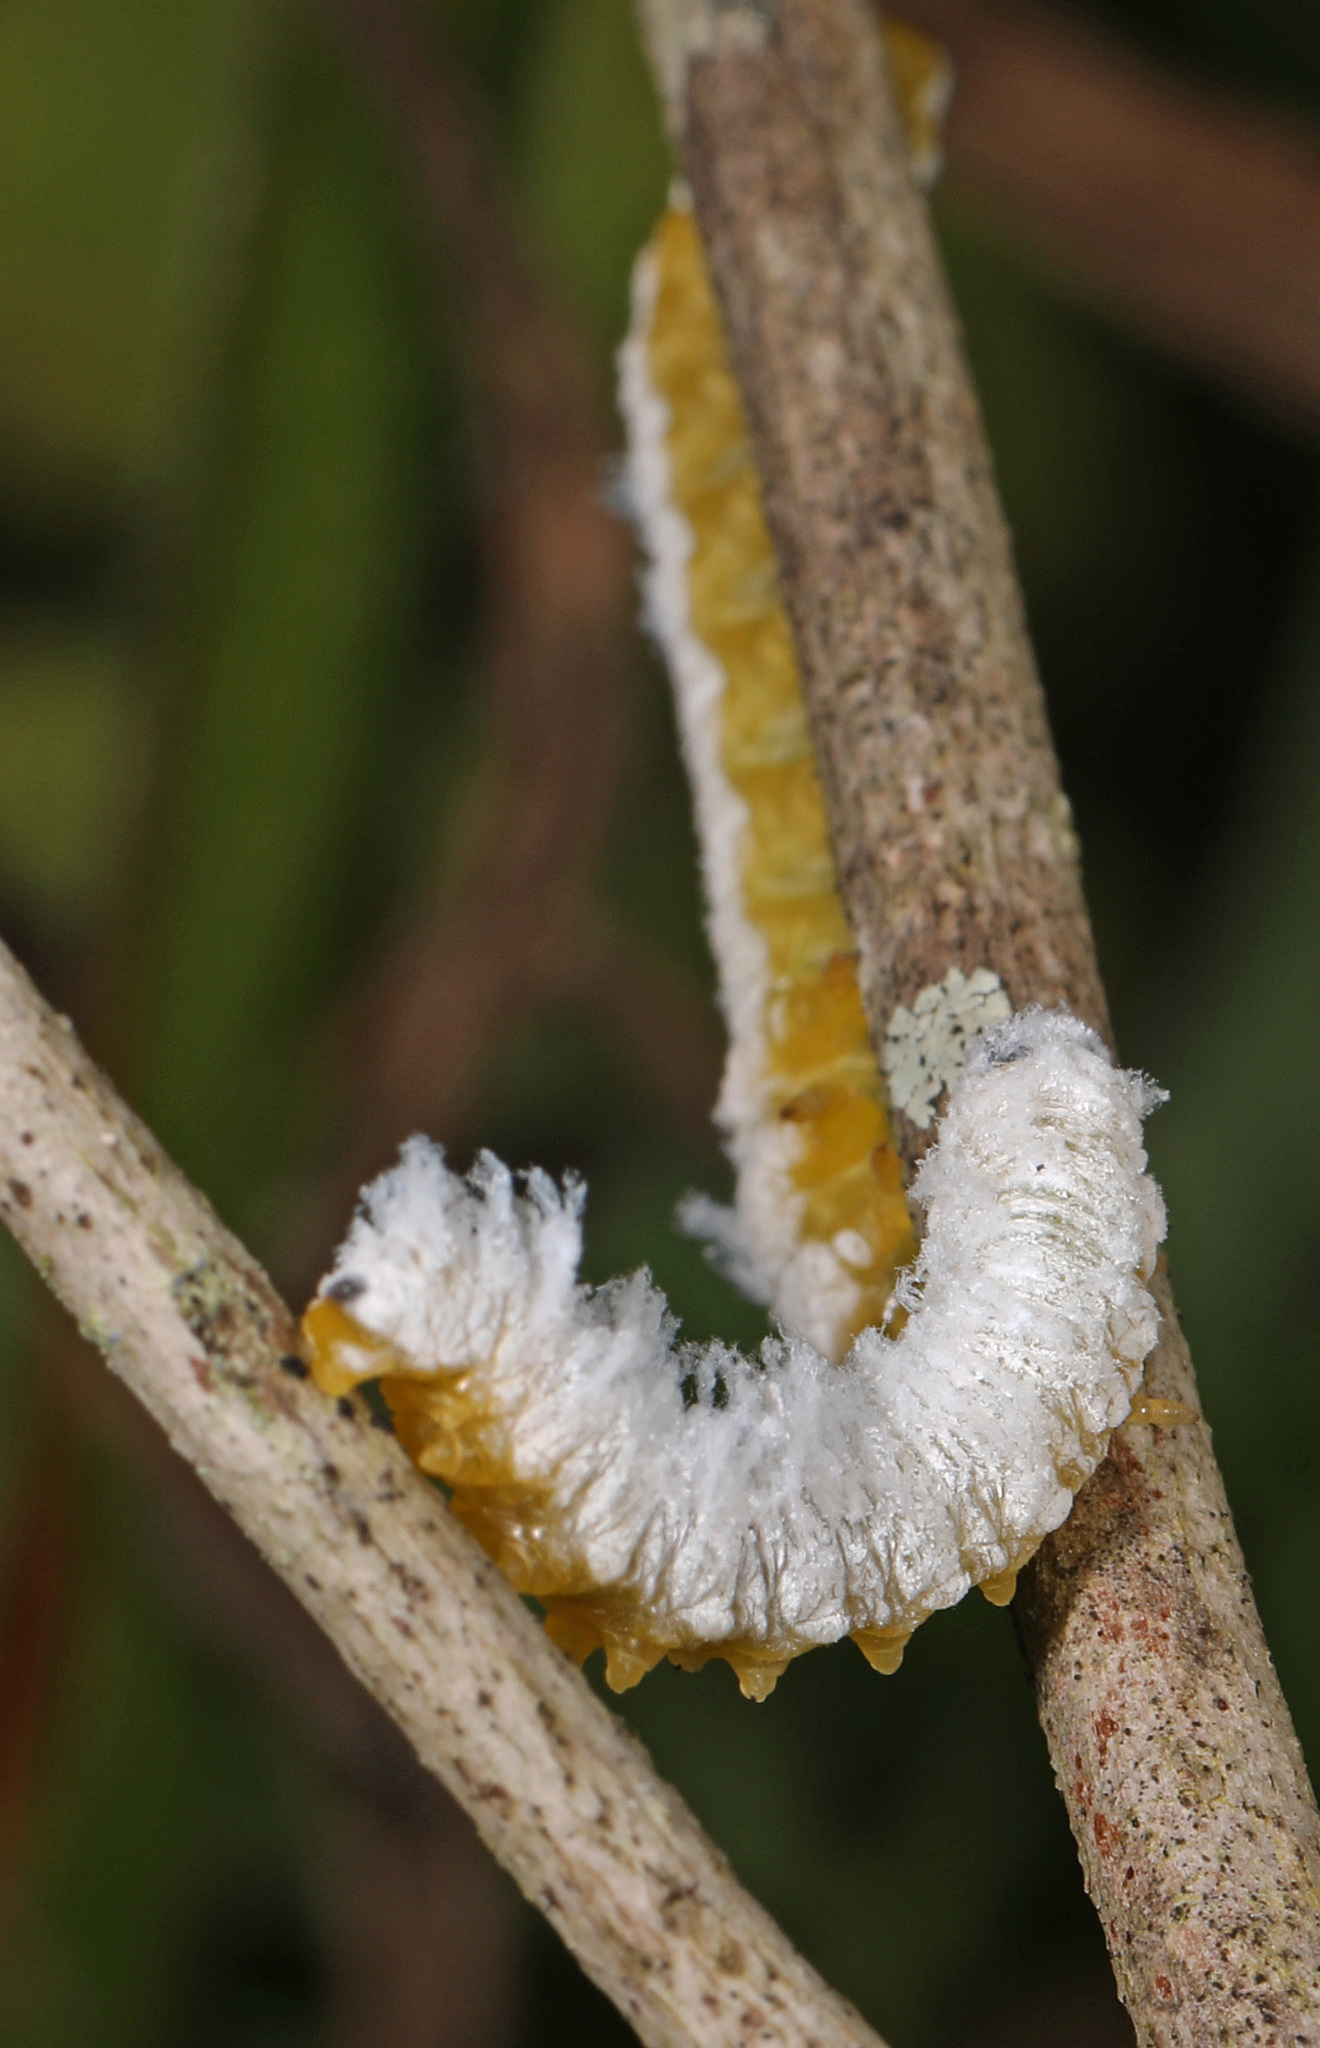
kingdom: Animalia
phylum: Arthropoda
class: Insecta
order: Hymenoptera
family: Tenthredinidae
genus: Macremphytus
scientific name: Macremphytus testaceus
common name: Dogwood sawfly
